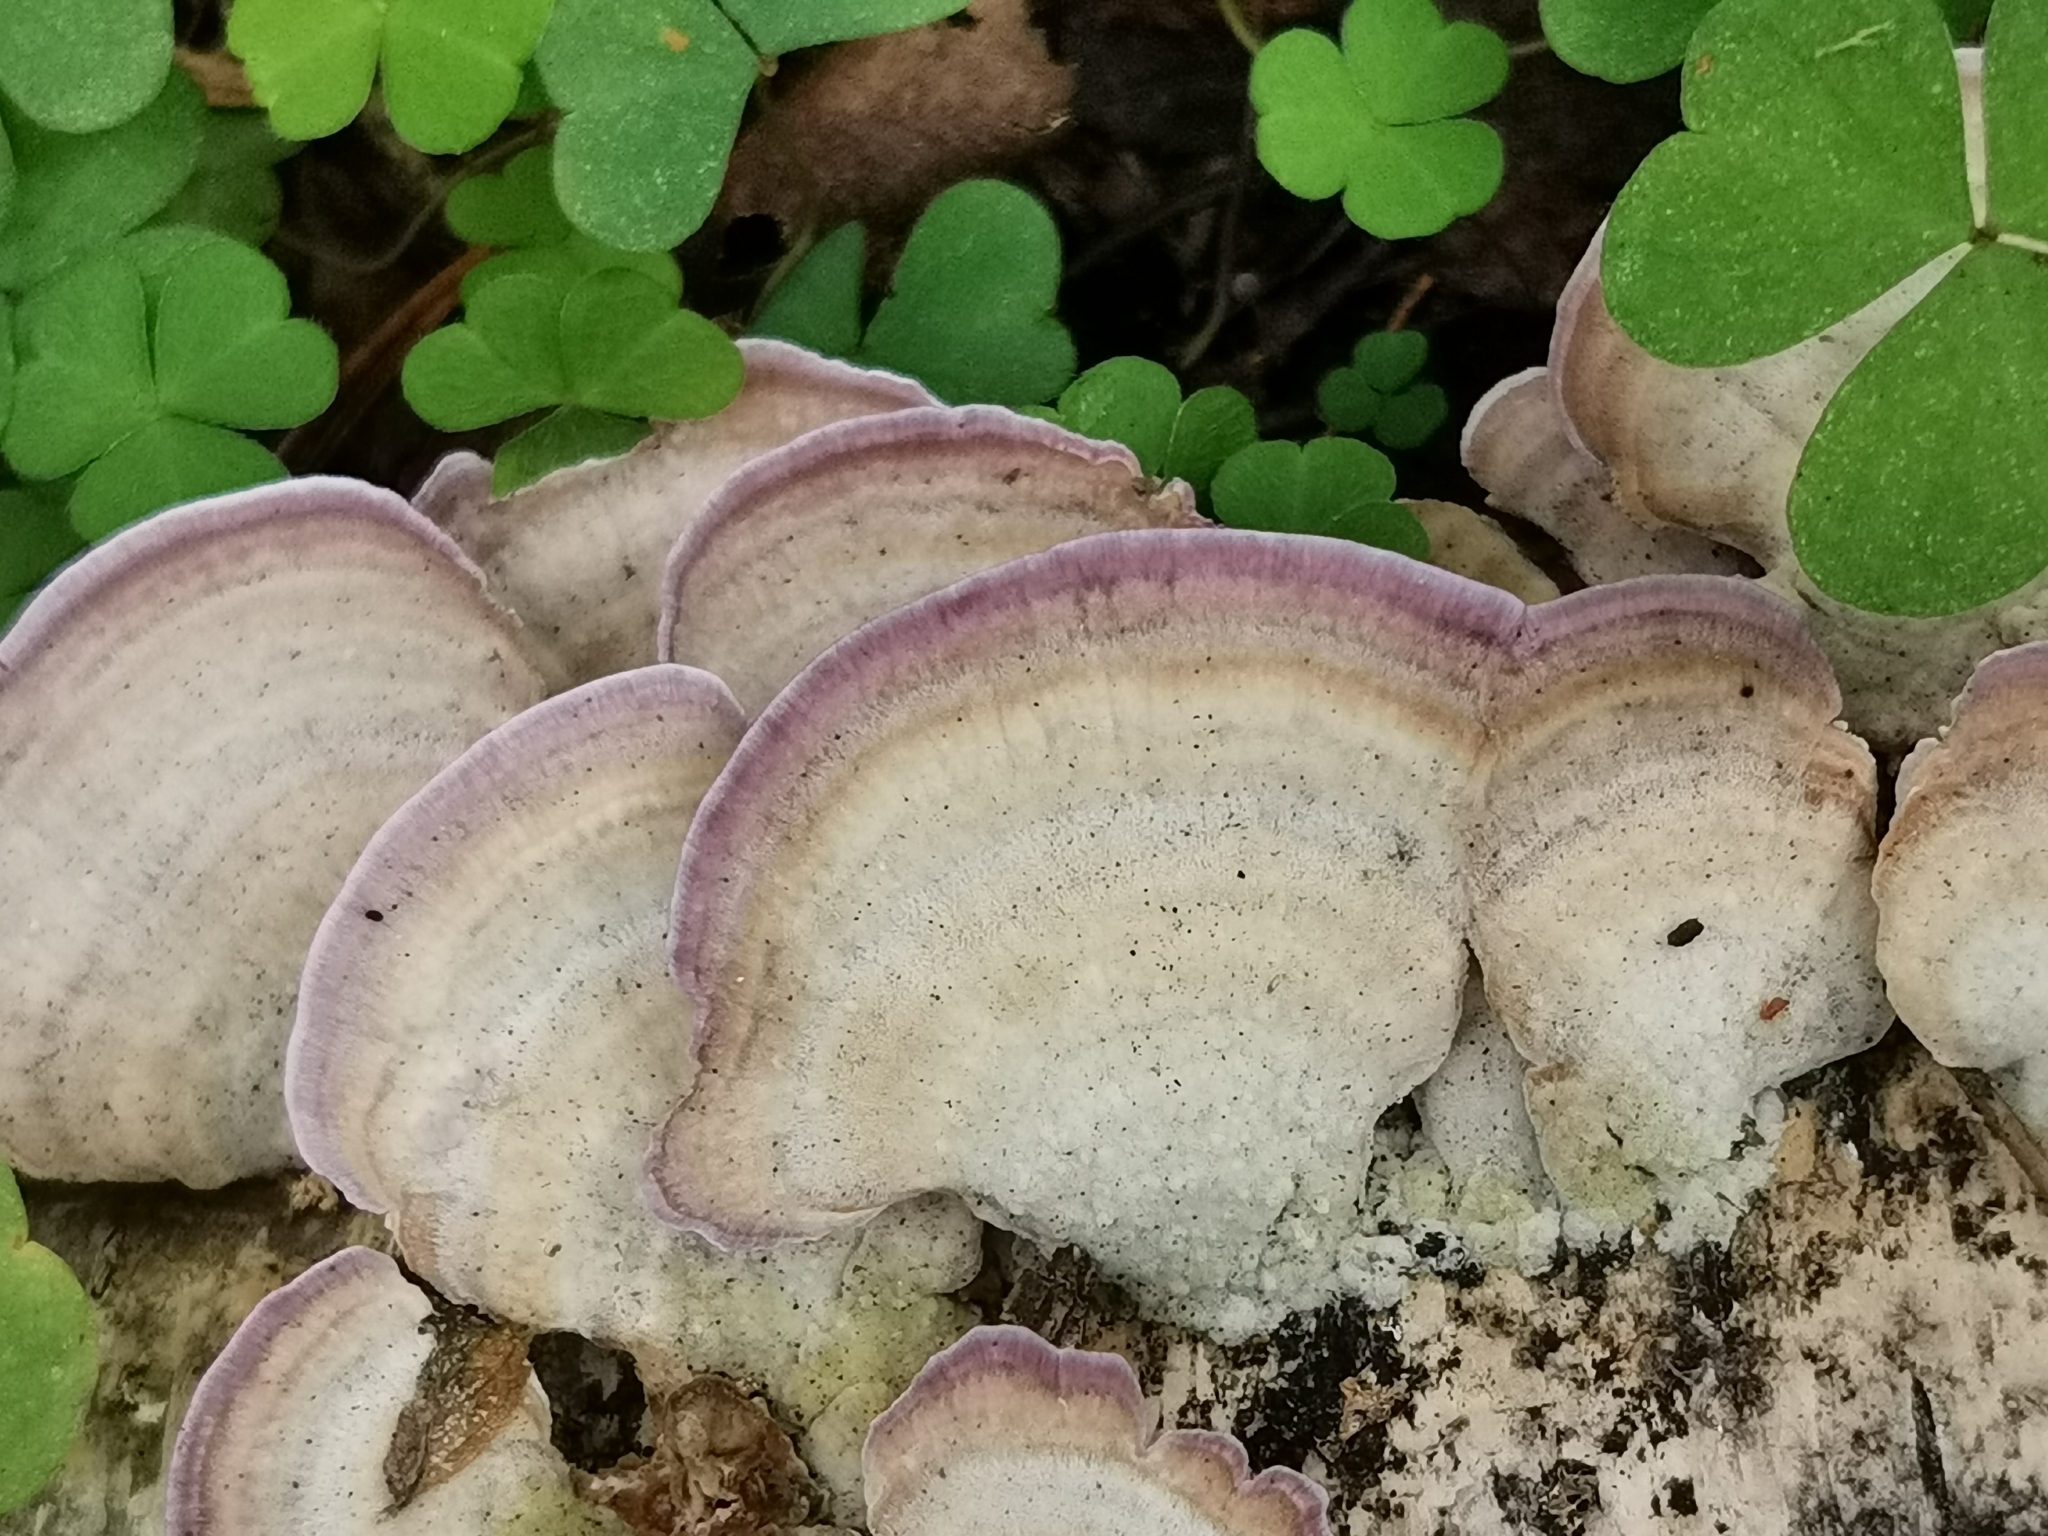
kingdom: Fungi
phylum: Basidiomycota
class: Agaricomycetes
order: Hymenochaetales
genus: Trichaptum
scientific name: Trichaptum biforme
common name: Violet-toothed polypore
